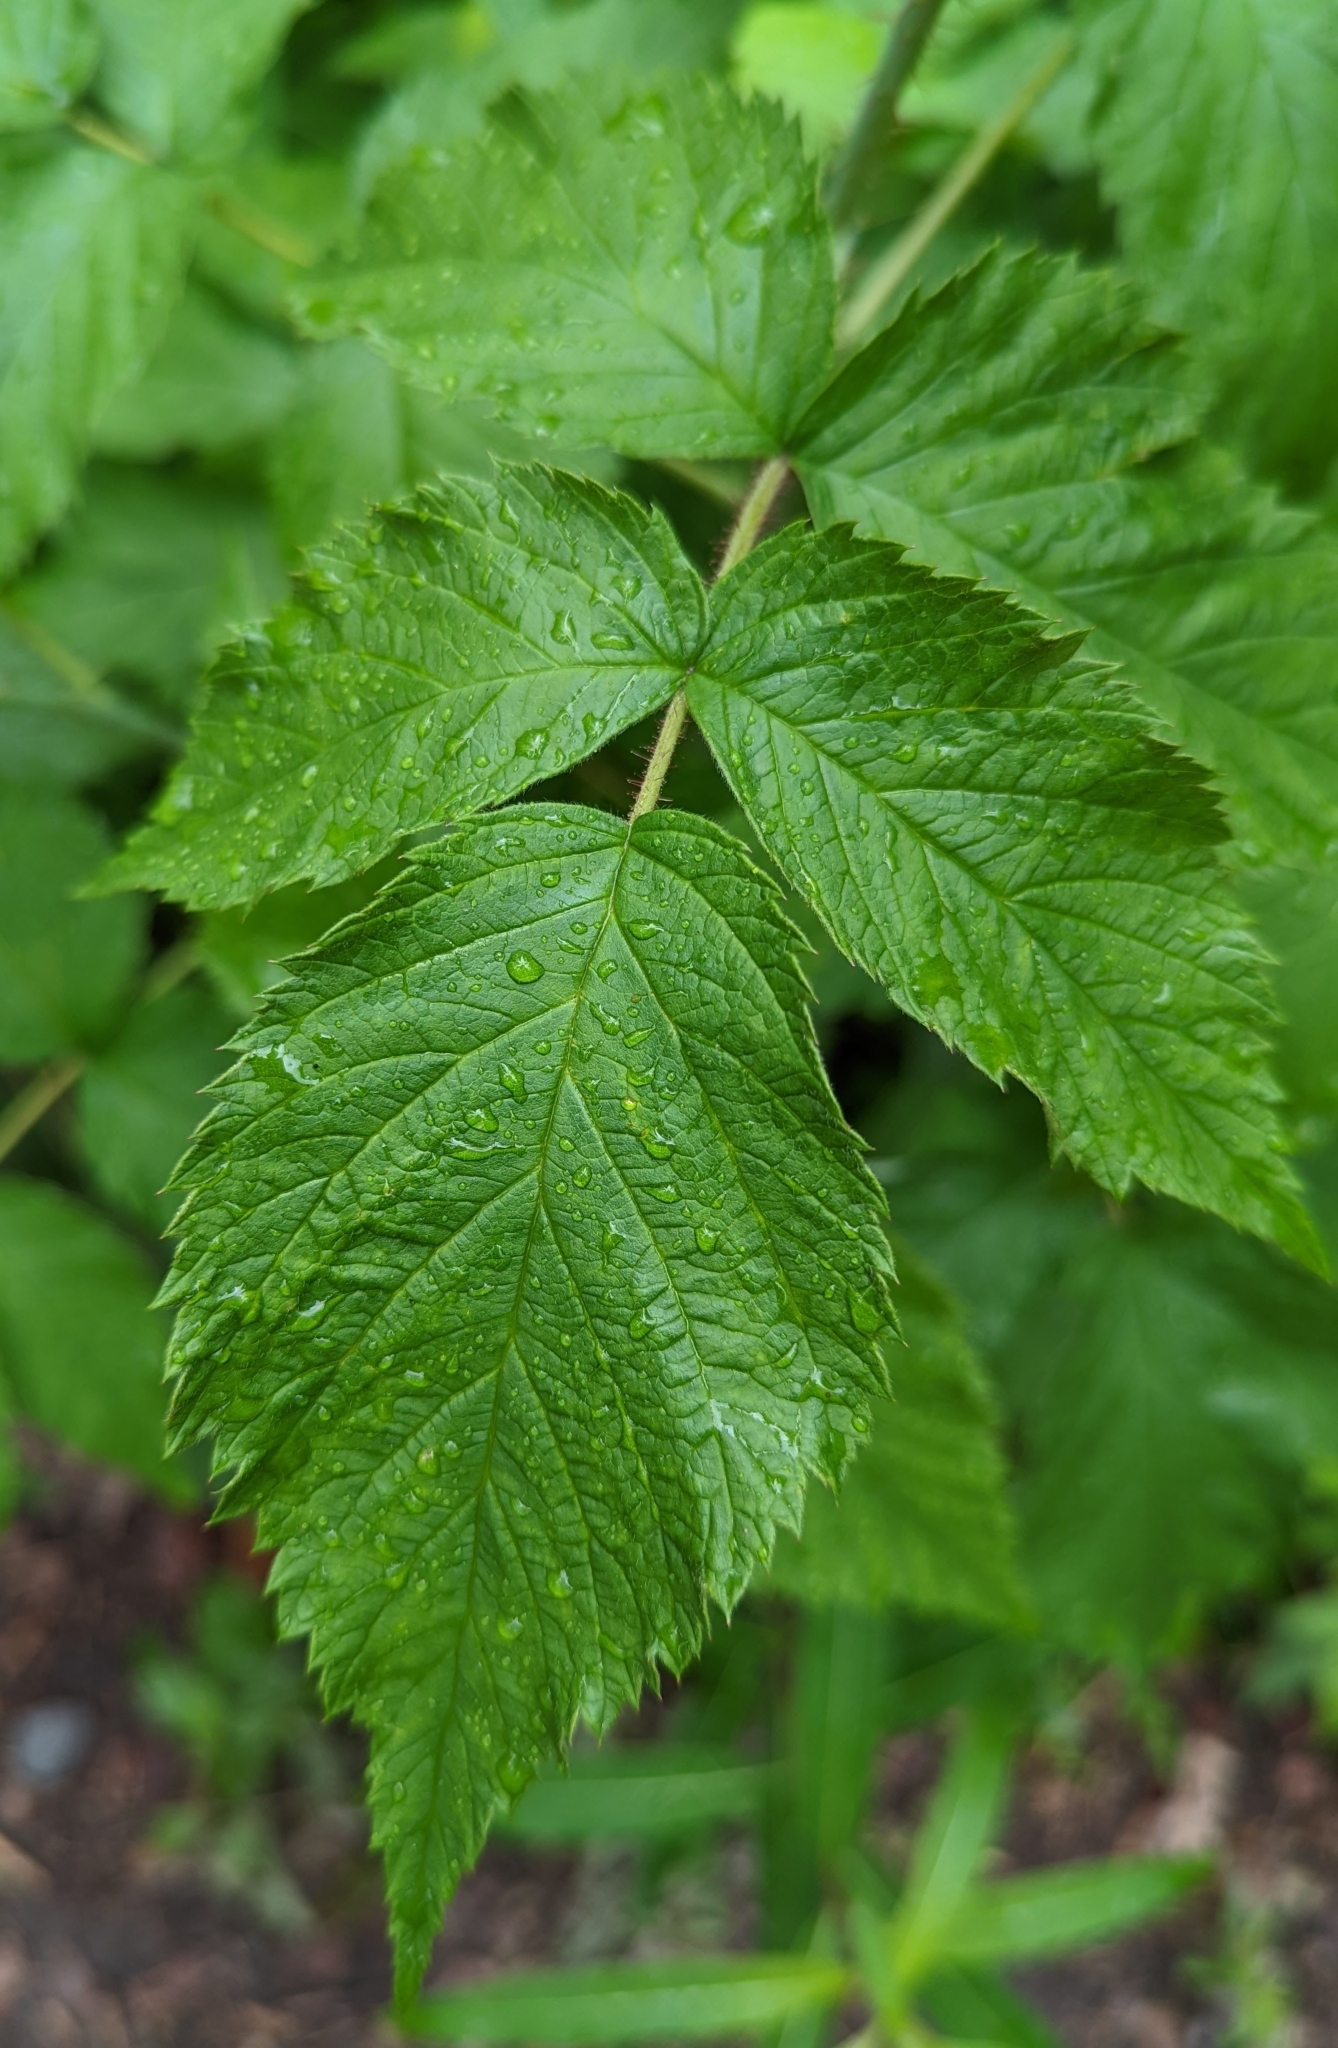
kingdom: Plantae
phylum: Tracheophyta
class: Magnoliopsida
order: Rosales
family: Rosaceae
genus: Rubus
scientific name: Rubus idaeus
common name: Raspberry
